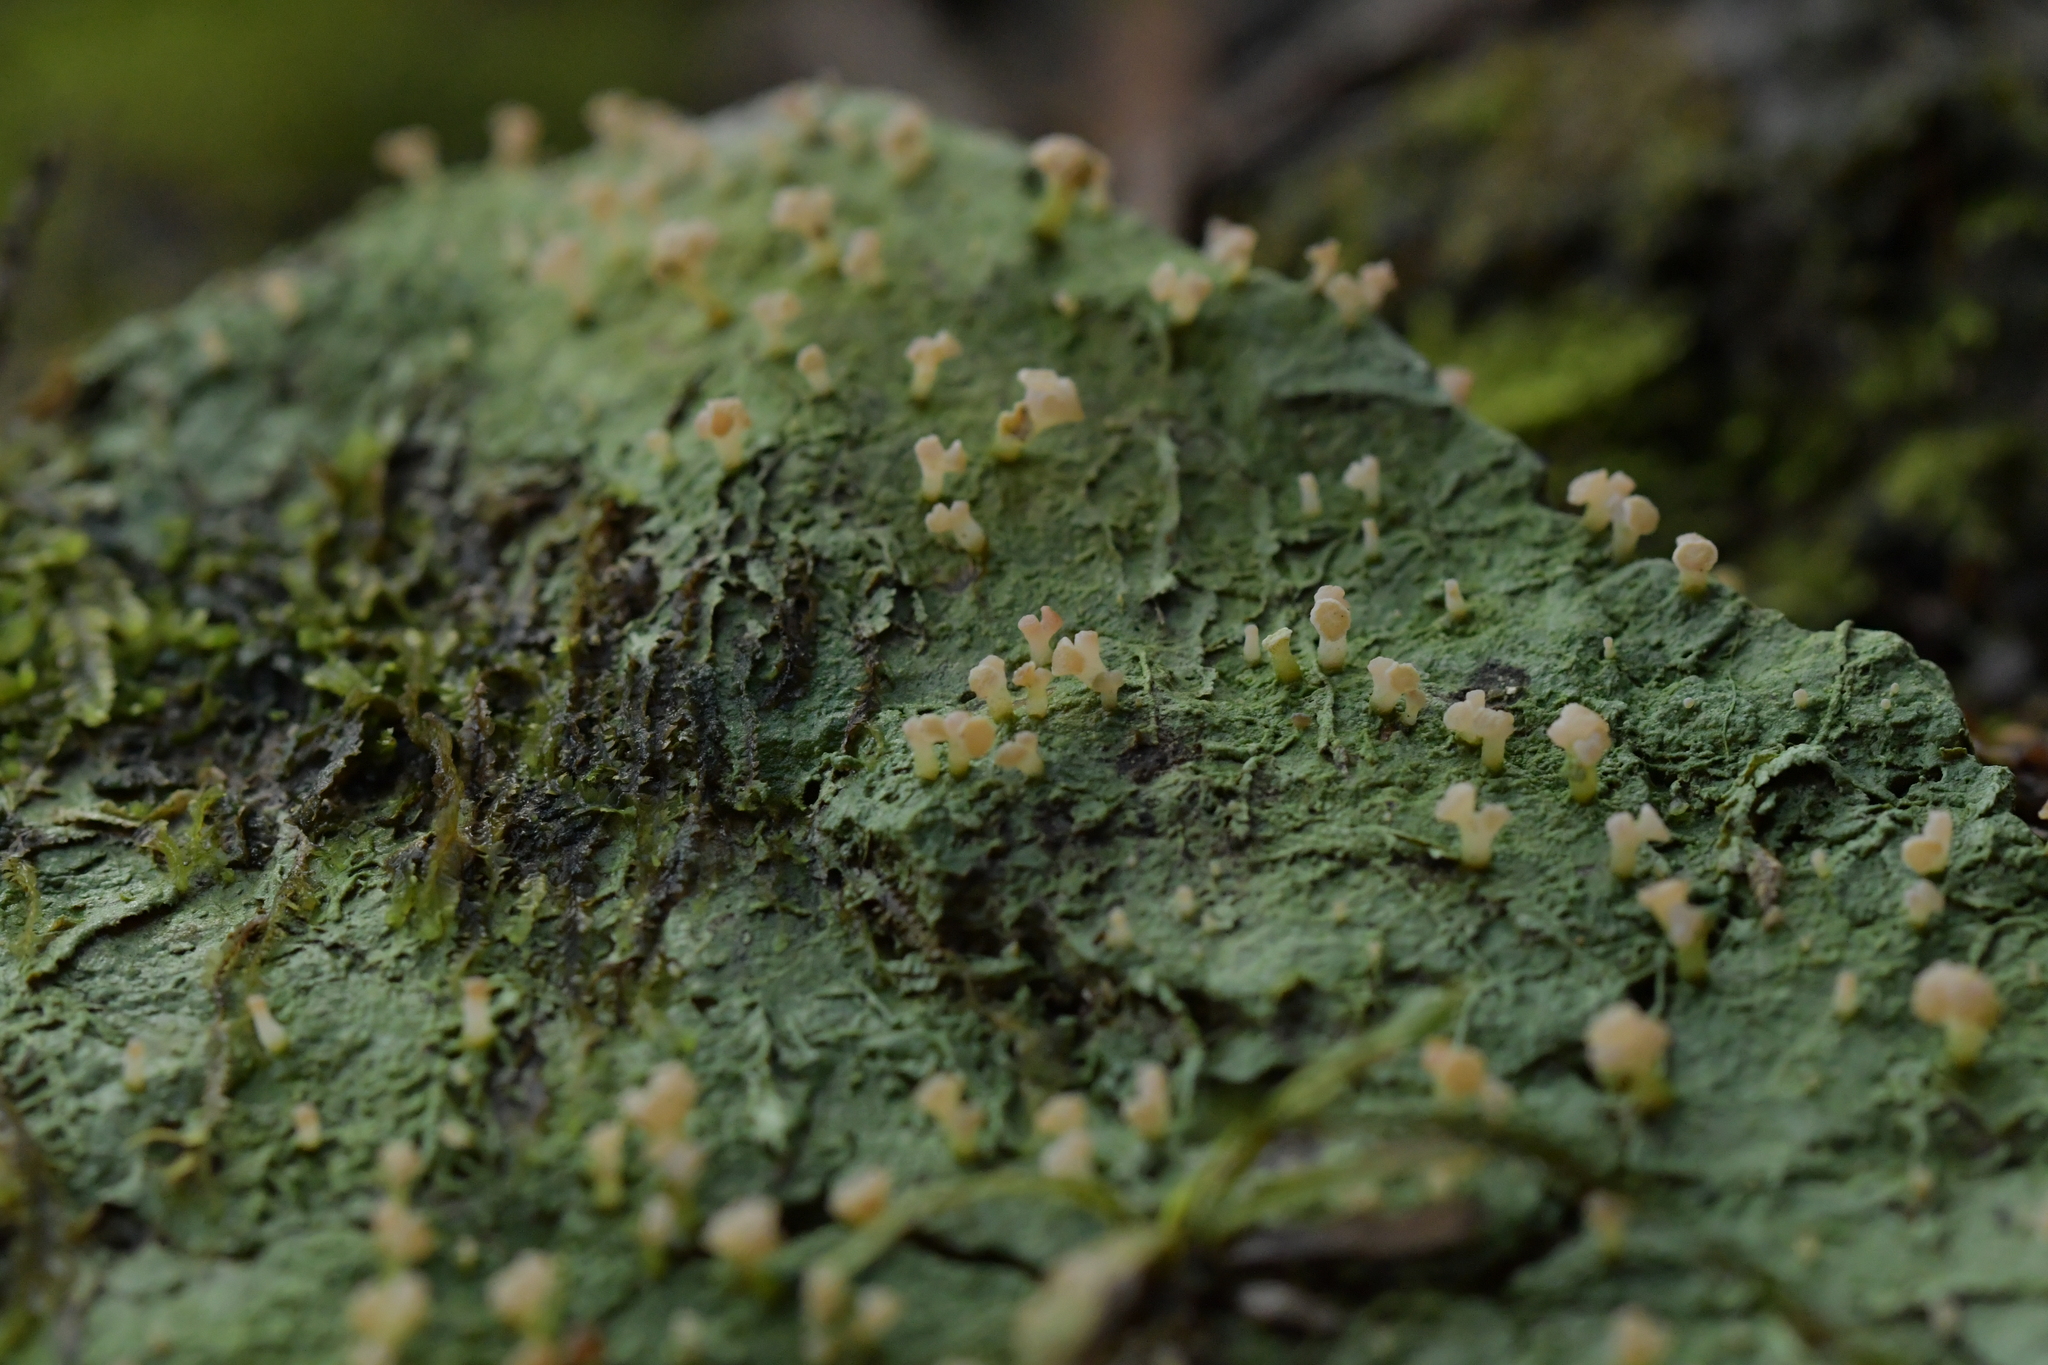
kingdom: Fungi
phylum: Ascomycota
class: Lecanoromycetes
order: Baeomycetales
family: Baeomycetaceae
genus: Baeomyces
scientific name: Baeomyces heteromorphus
